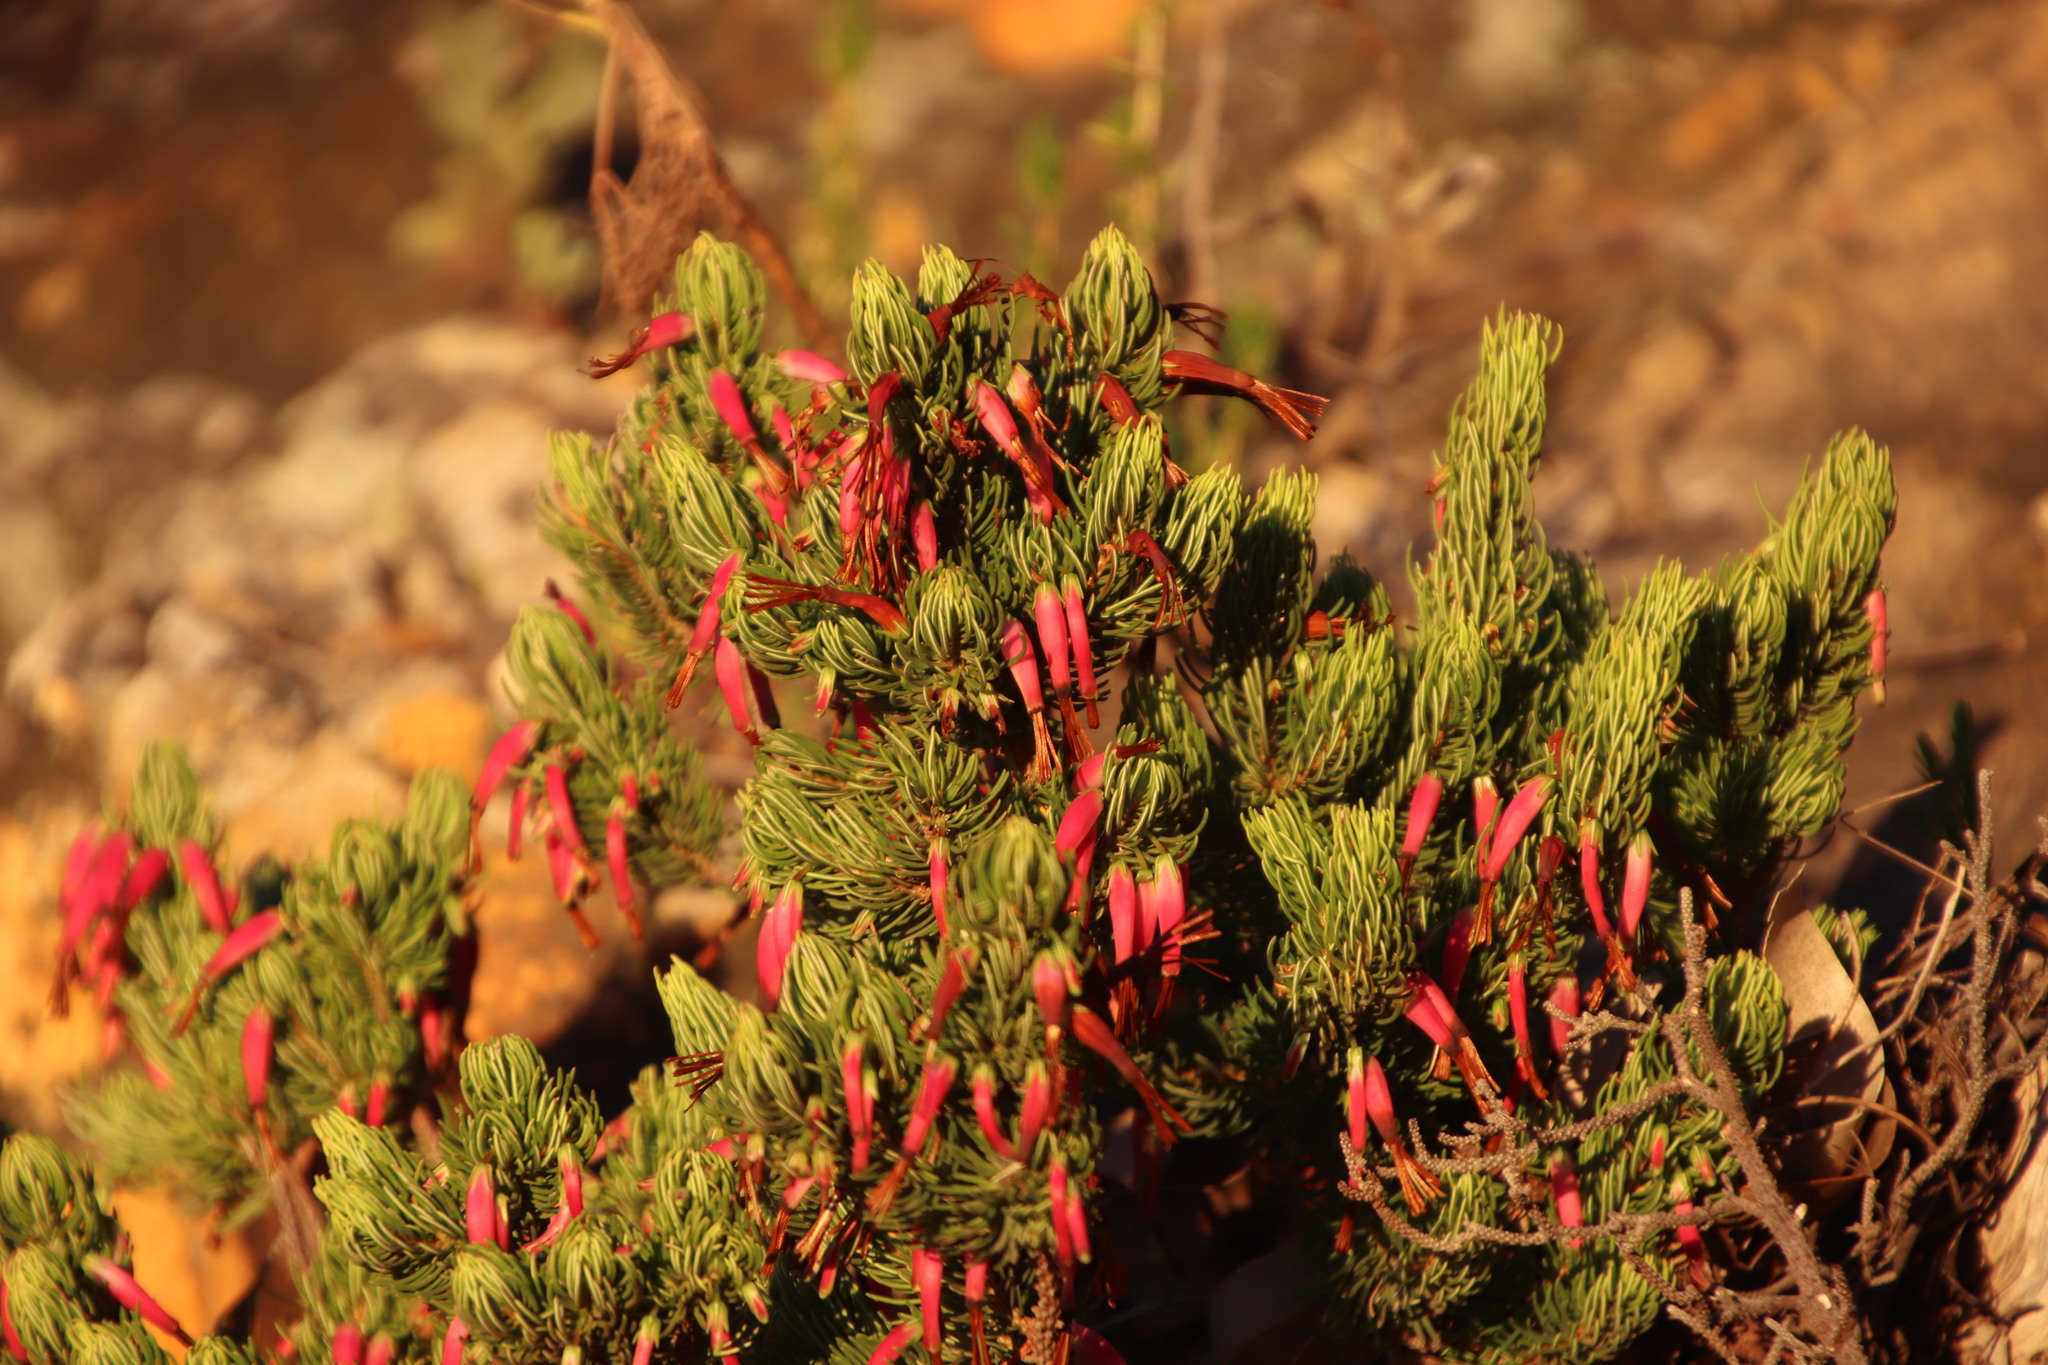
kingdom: Plantae
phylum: Tracheophyta
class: Magnoliopsida
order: Ericales
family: Ericaceae
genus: Erica
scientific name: Erica plukenetii
